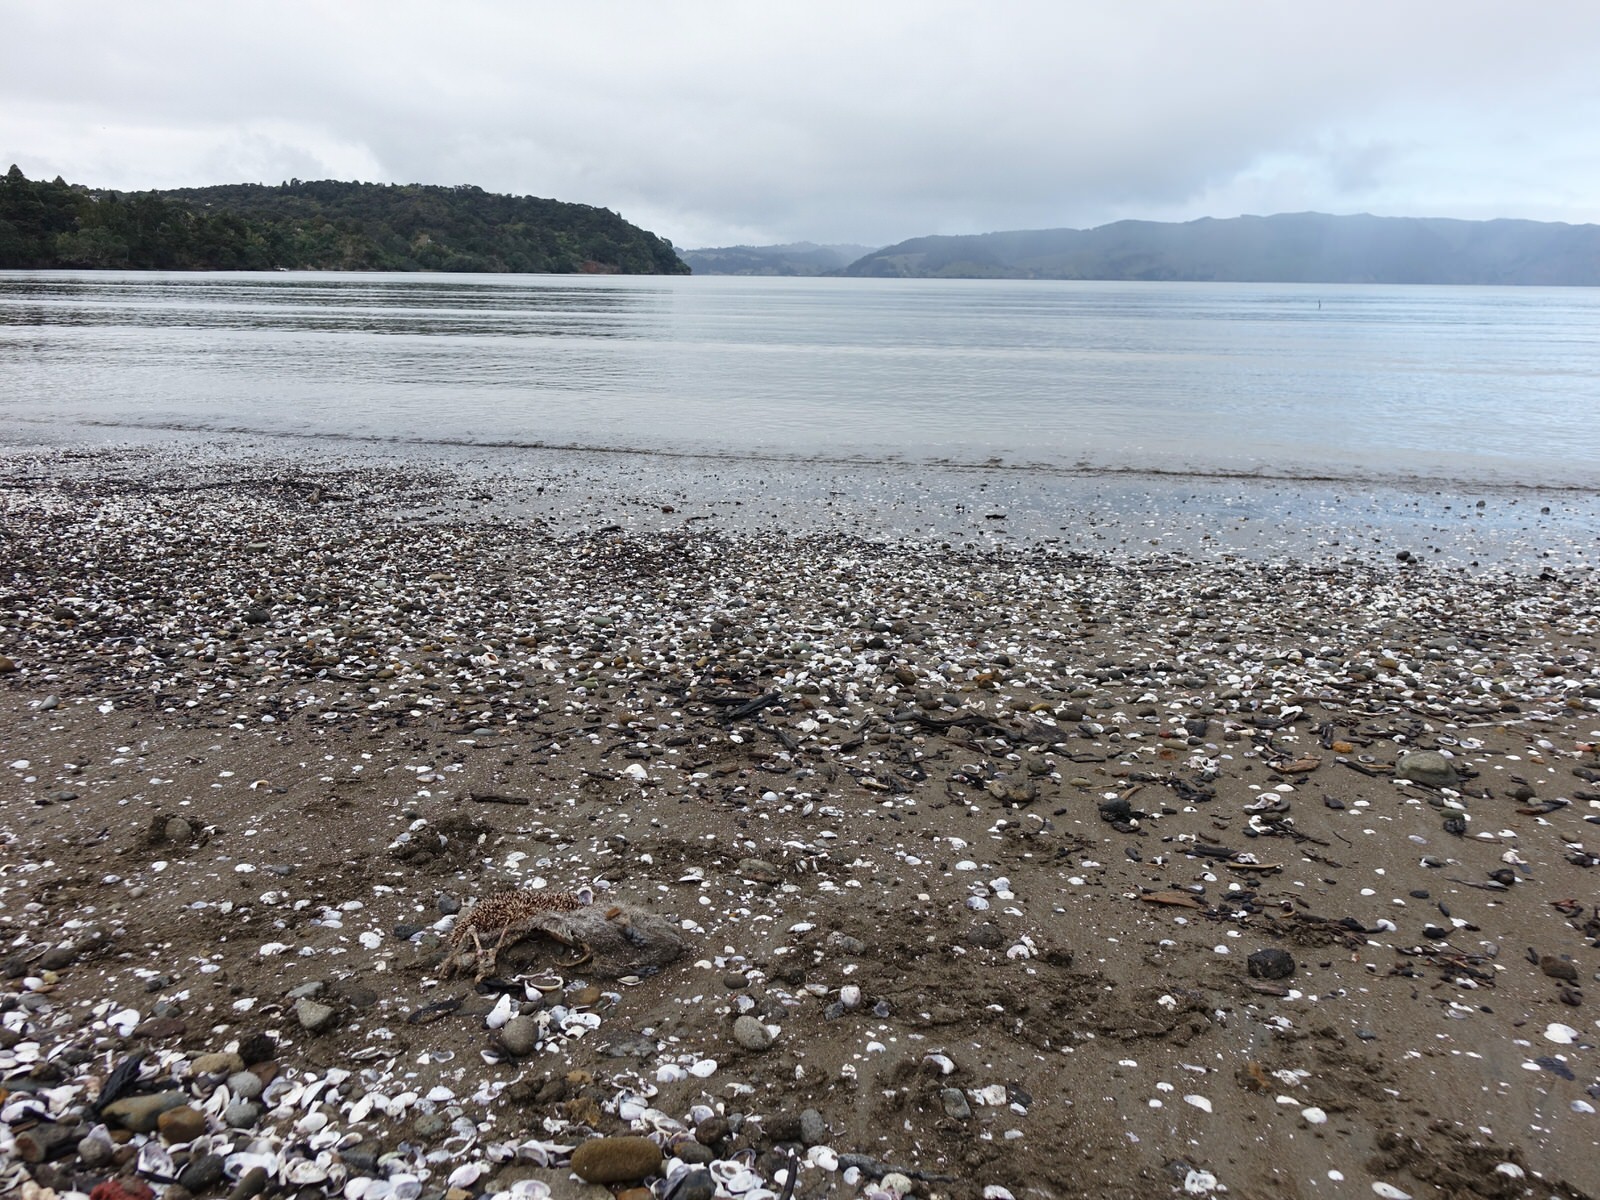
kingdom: Animalia
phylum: Chordata
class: Mammalia
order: Erinaceomorpha
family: Erinaceidae
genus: Erinaceus
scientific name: Erinaceus europaeus
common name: West european hedgehog
